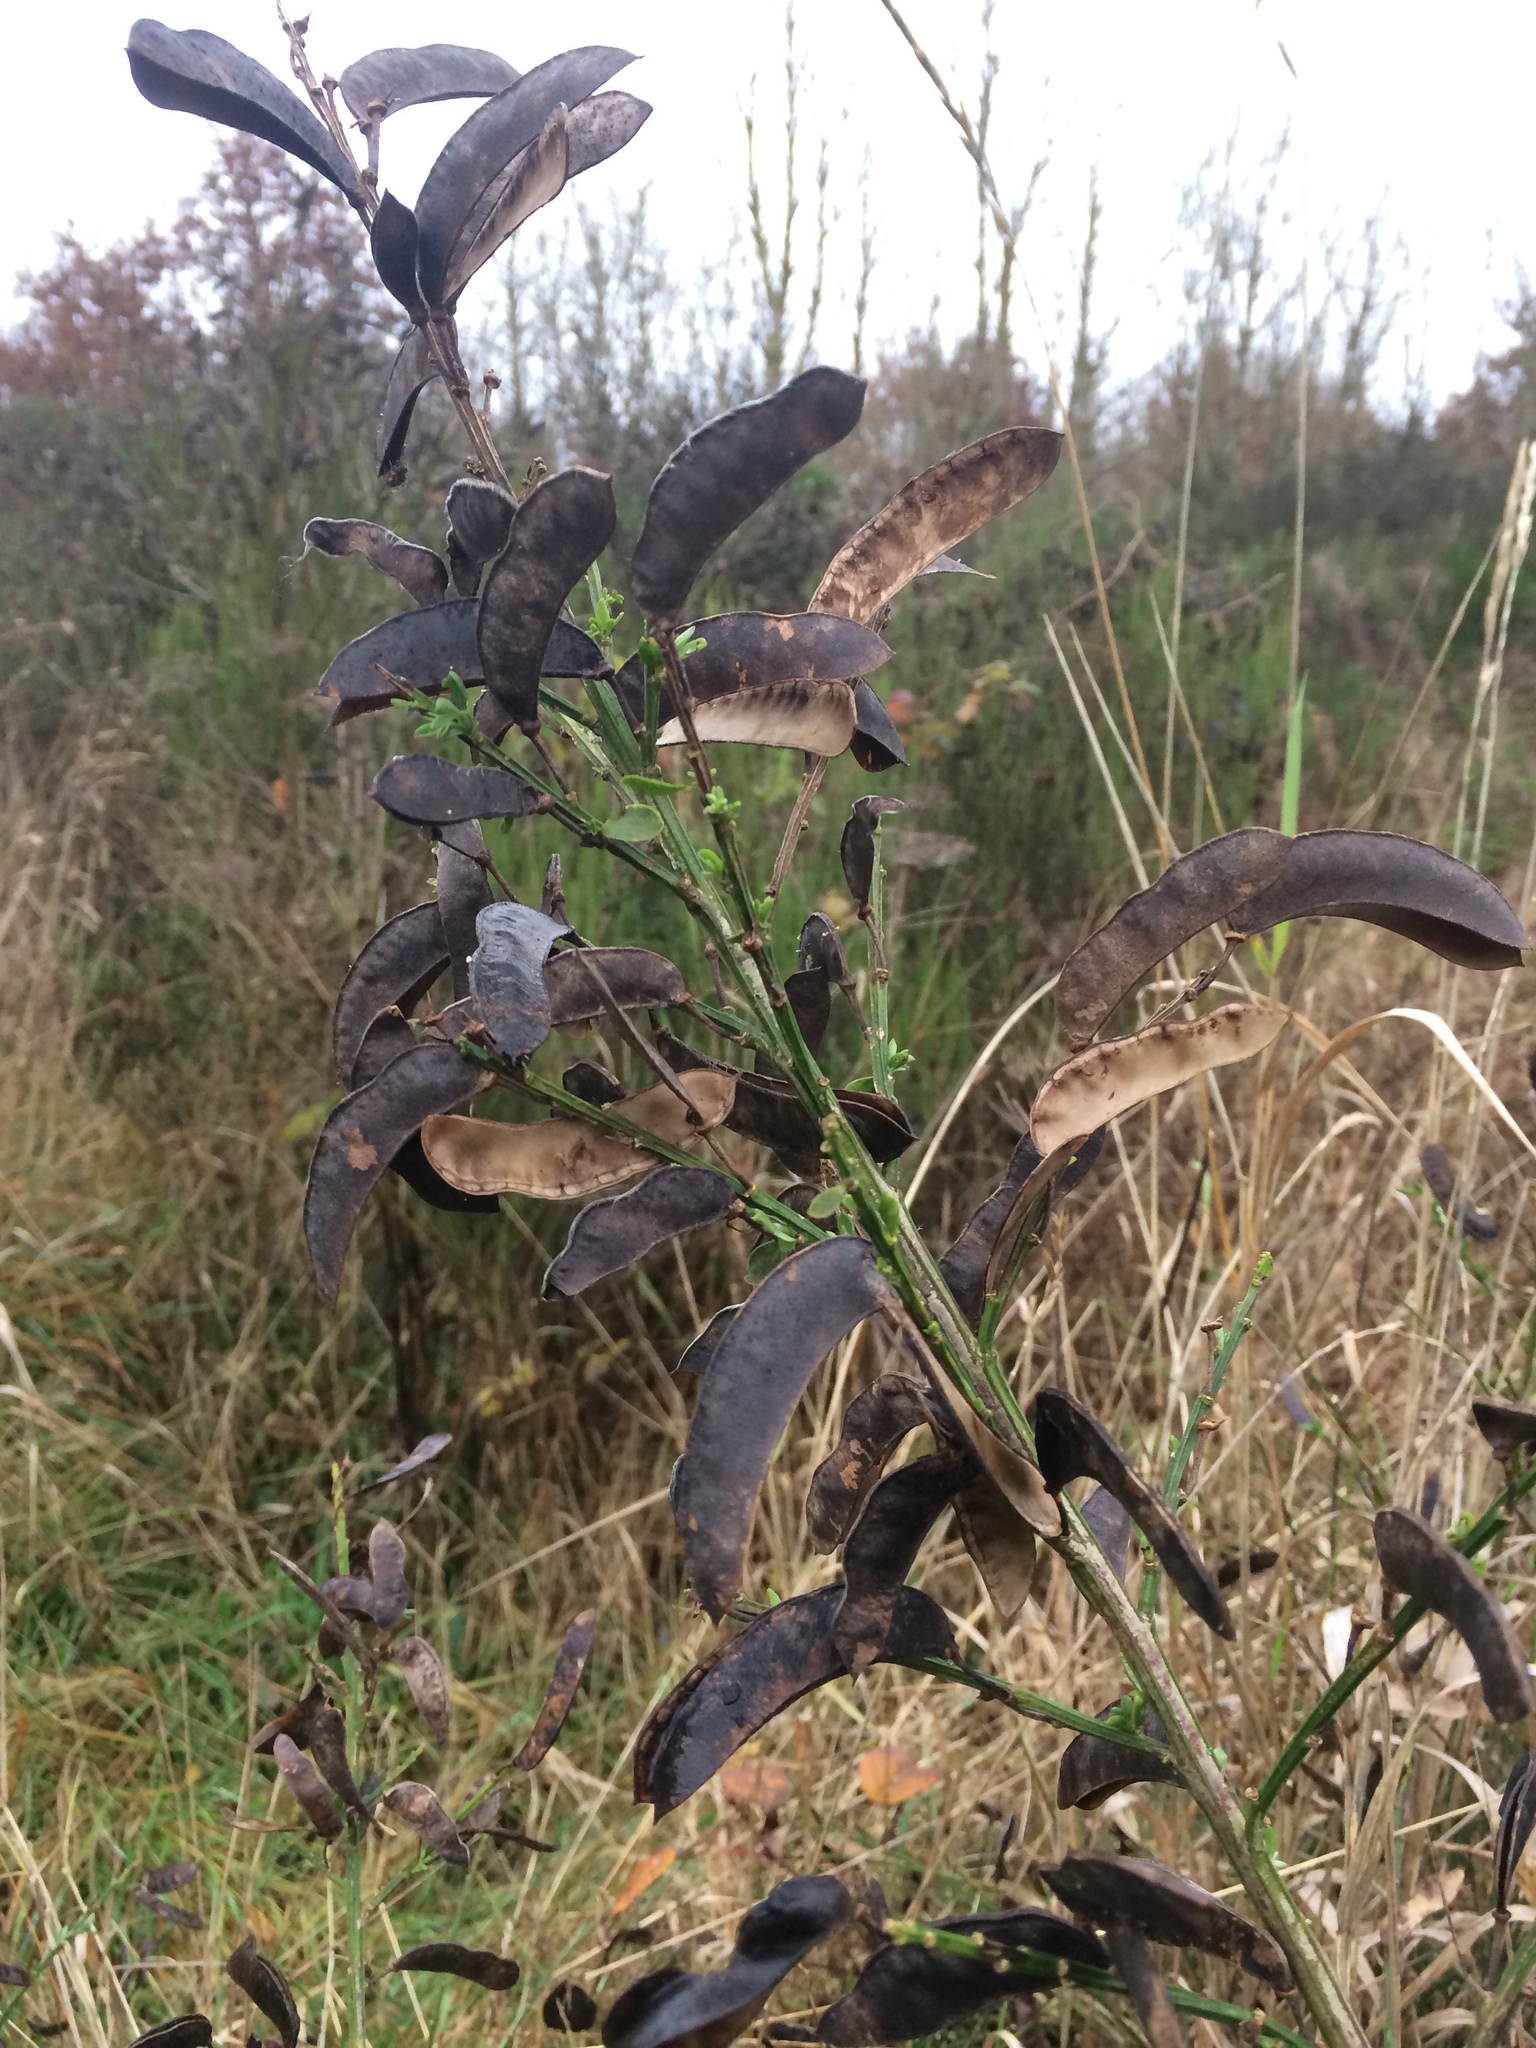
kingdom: Plantae
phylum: Tracheophyta
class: Magnoliopsida
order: Fabales
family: Fabaceae
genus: Cytisus
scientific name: Cytisus scoparius
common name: Scotch broom
